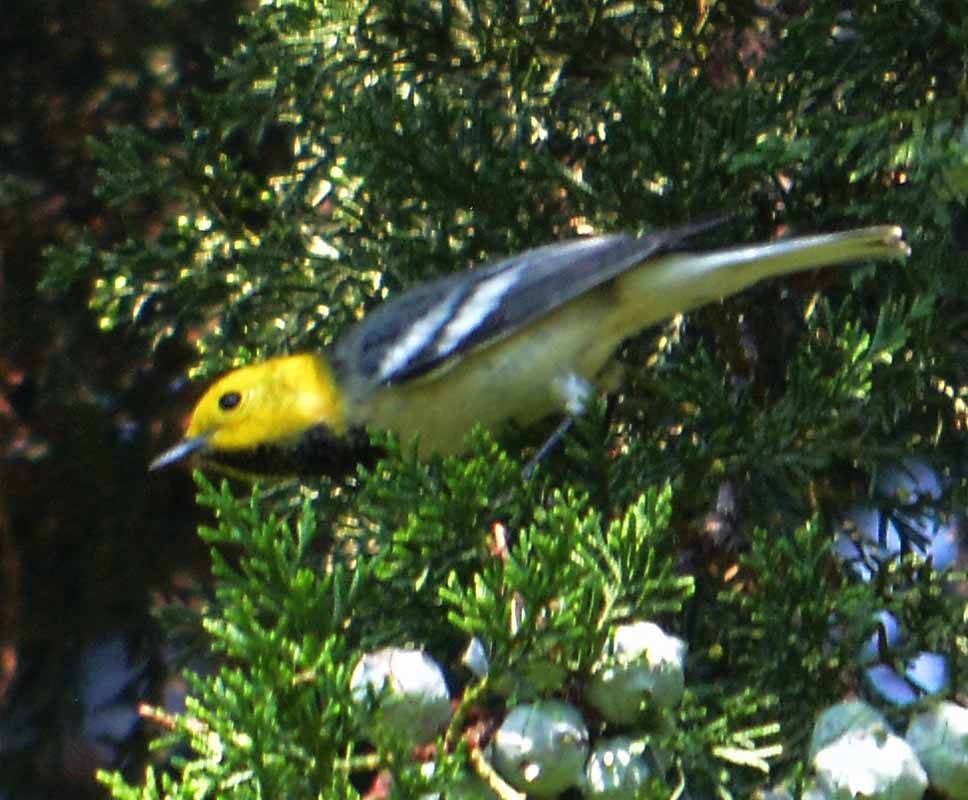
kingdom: Animalia
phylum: Chordata
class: Aves
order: Passeriformes
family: Parulidae
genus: Setophaga
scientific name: Setophaga occidentalis
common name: Hermit warbler
